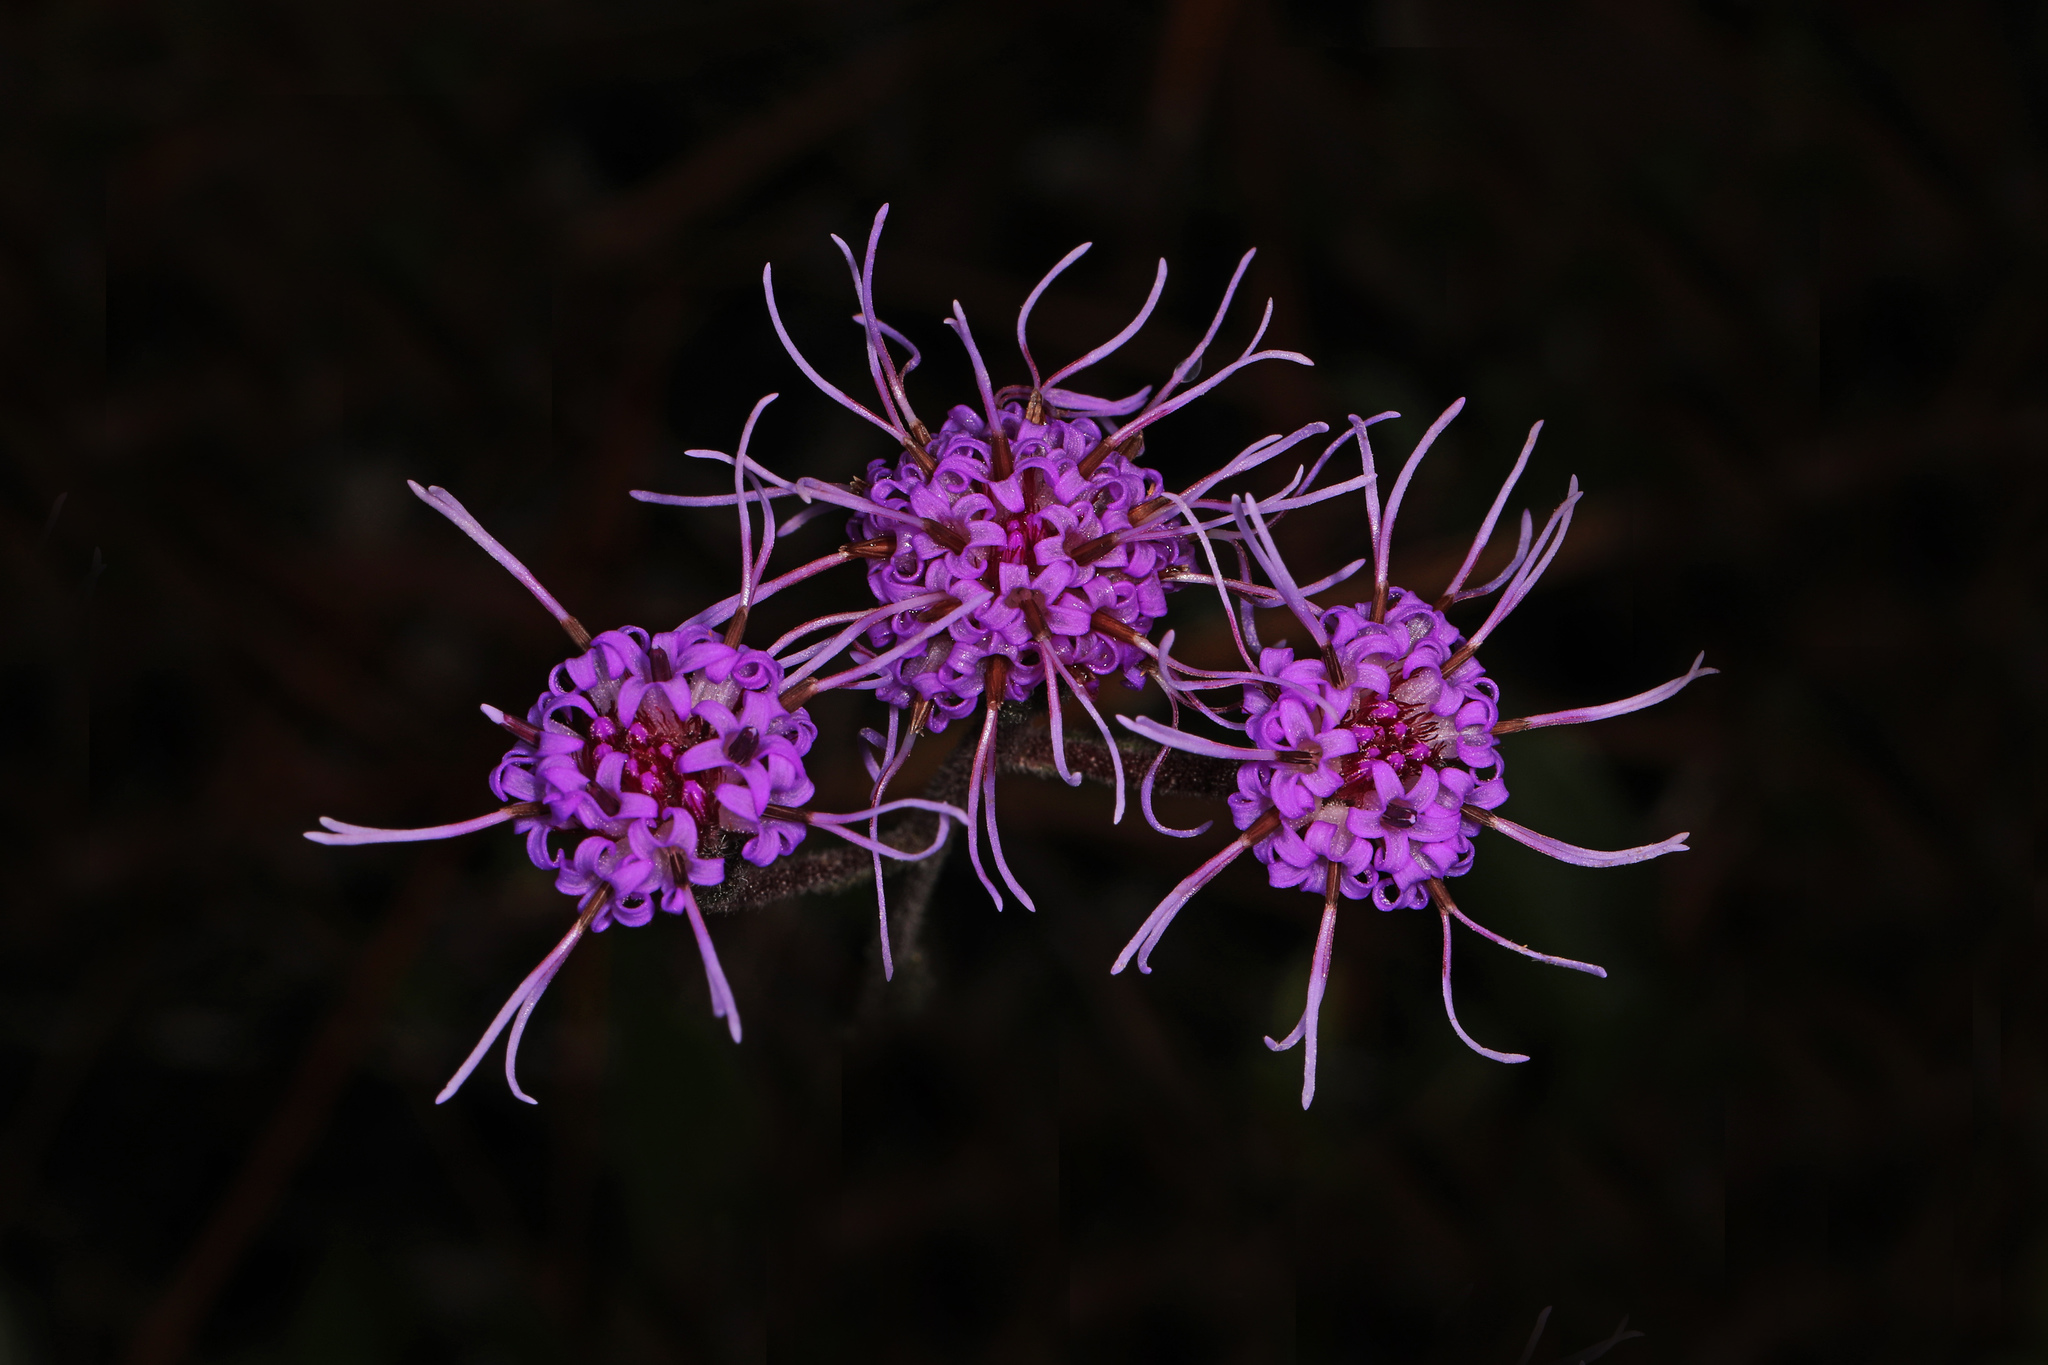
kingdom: Plantae
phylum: Tracheophyta
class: Magnoliopsida
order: Asterales
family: Asteraceae
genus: Carphephorus
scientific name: Carphephorus tomentosus
